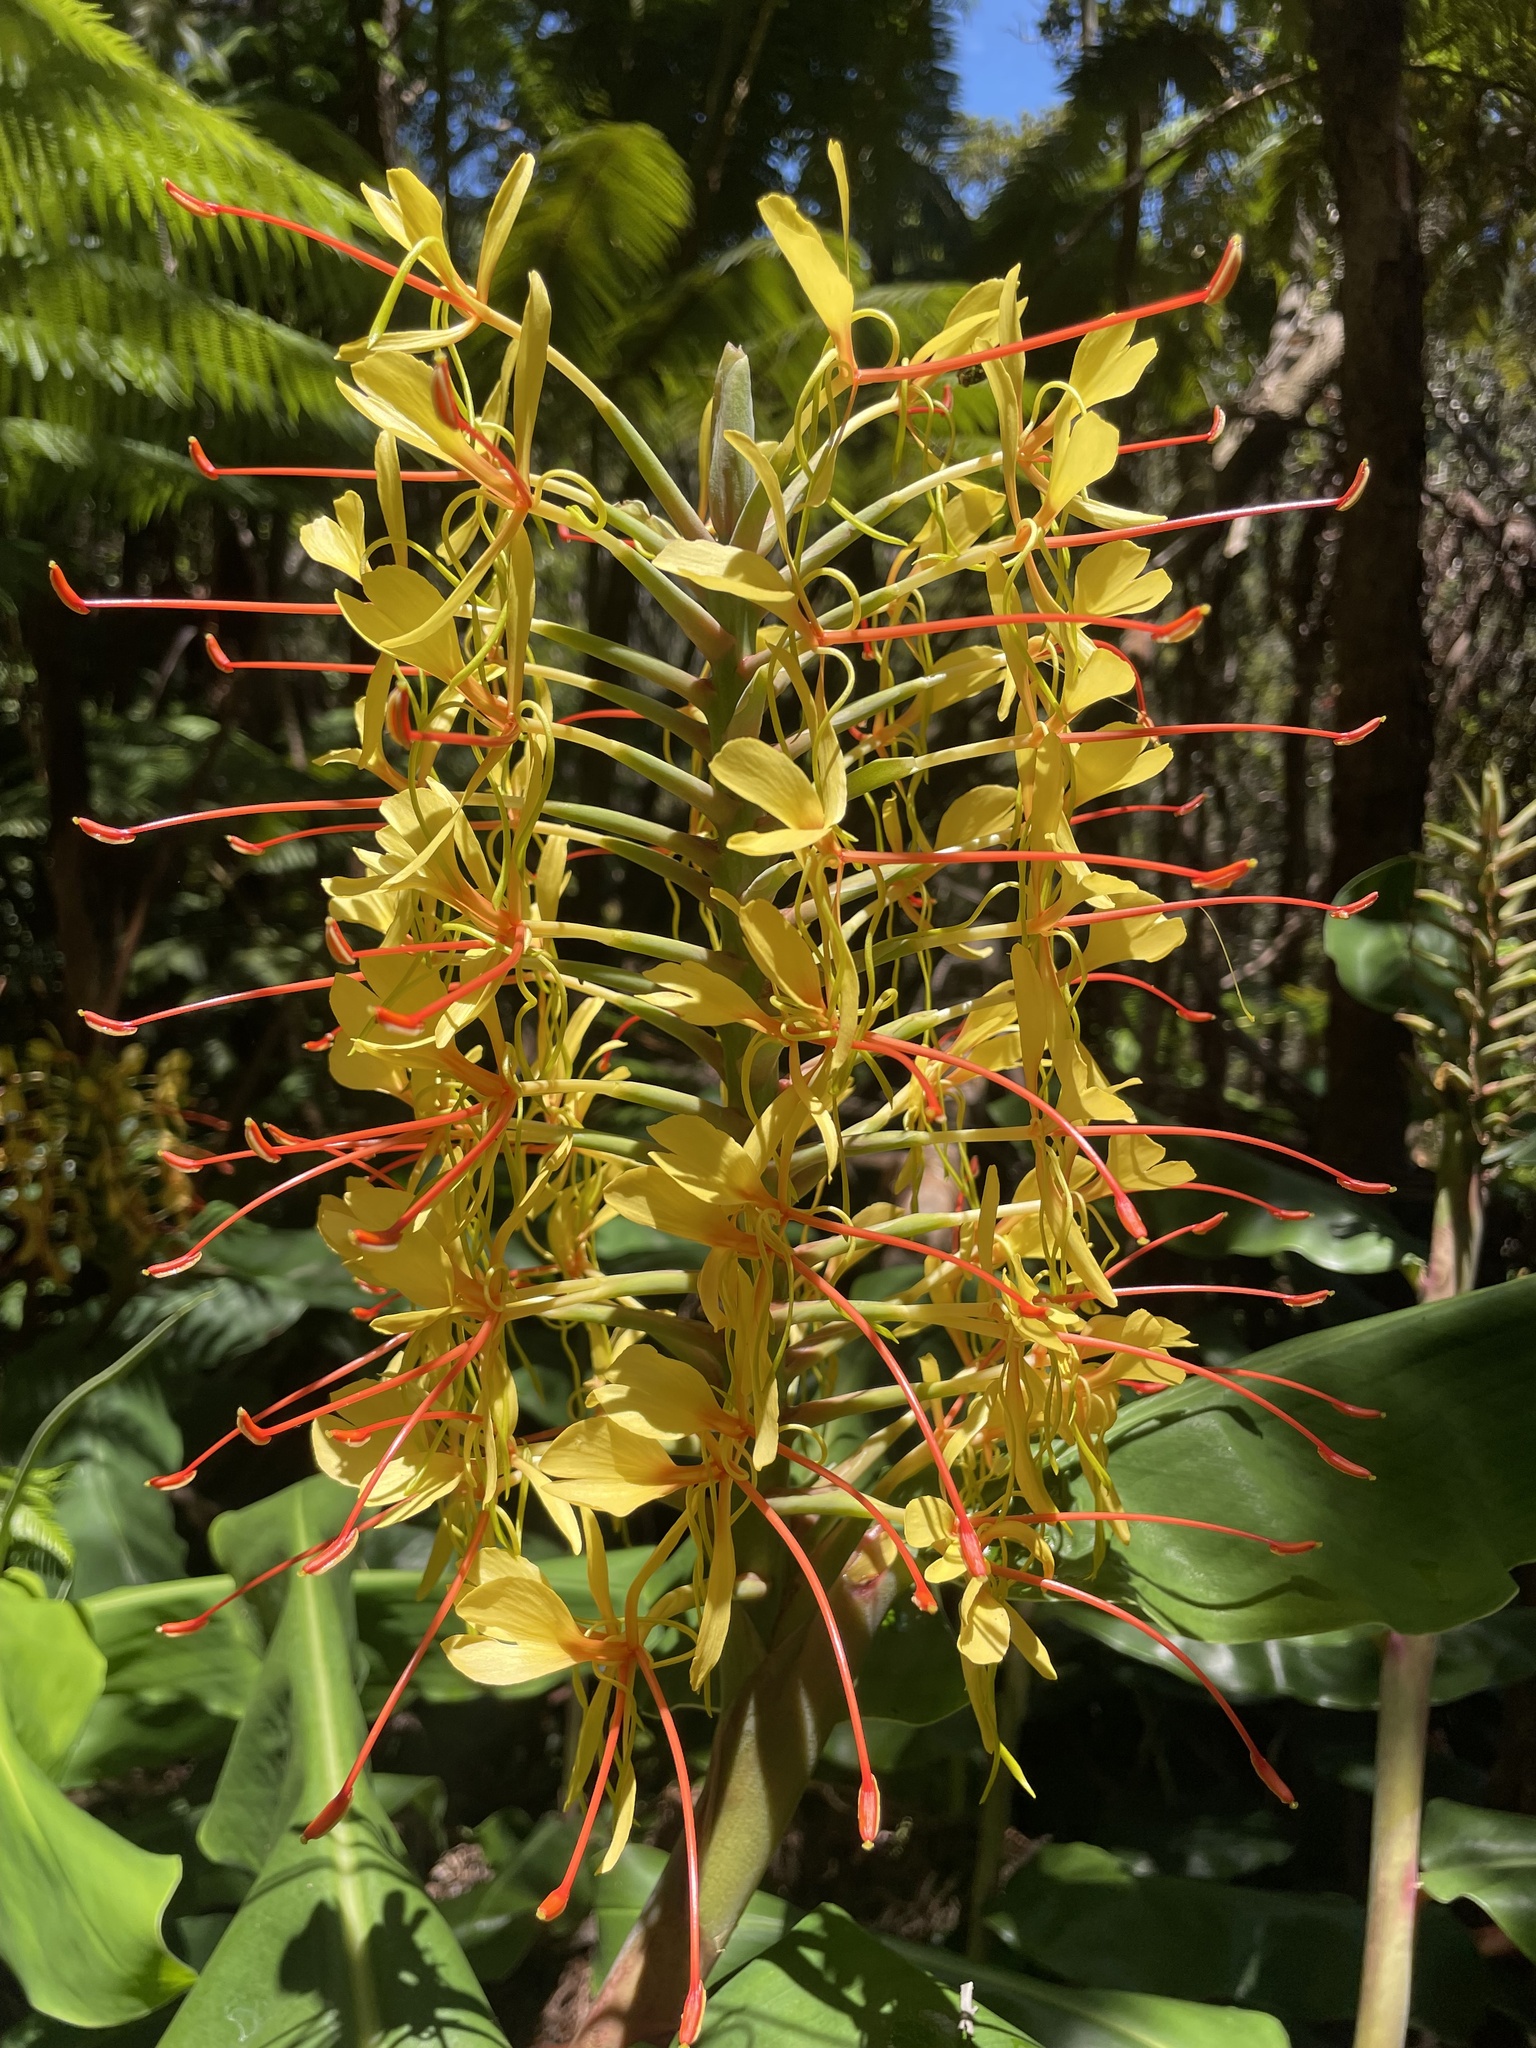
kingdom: Plantae
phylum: Tracheophyta
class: Liliopsida
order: Zingiberales
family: Zingiberaceae
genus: Hedychium
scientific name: Hedychium gardnerianum
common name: Himalayan ginger
